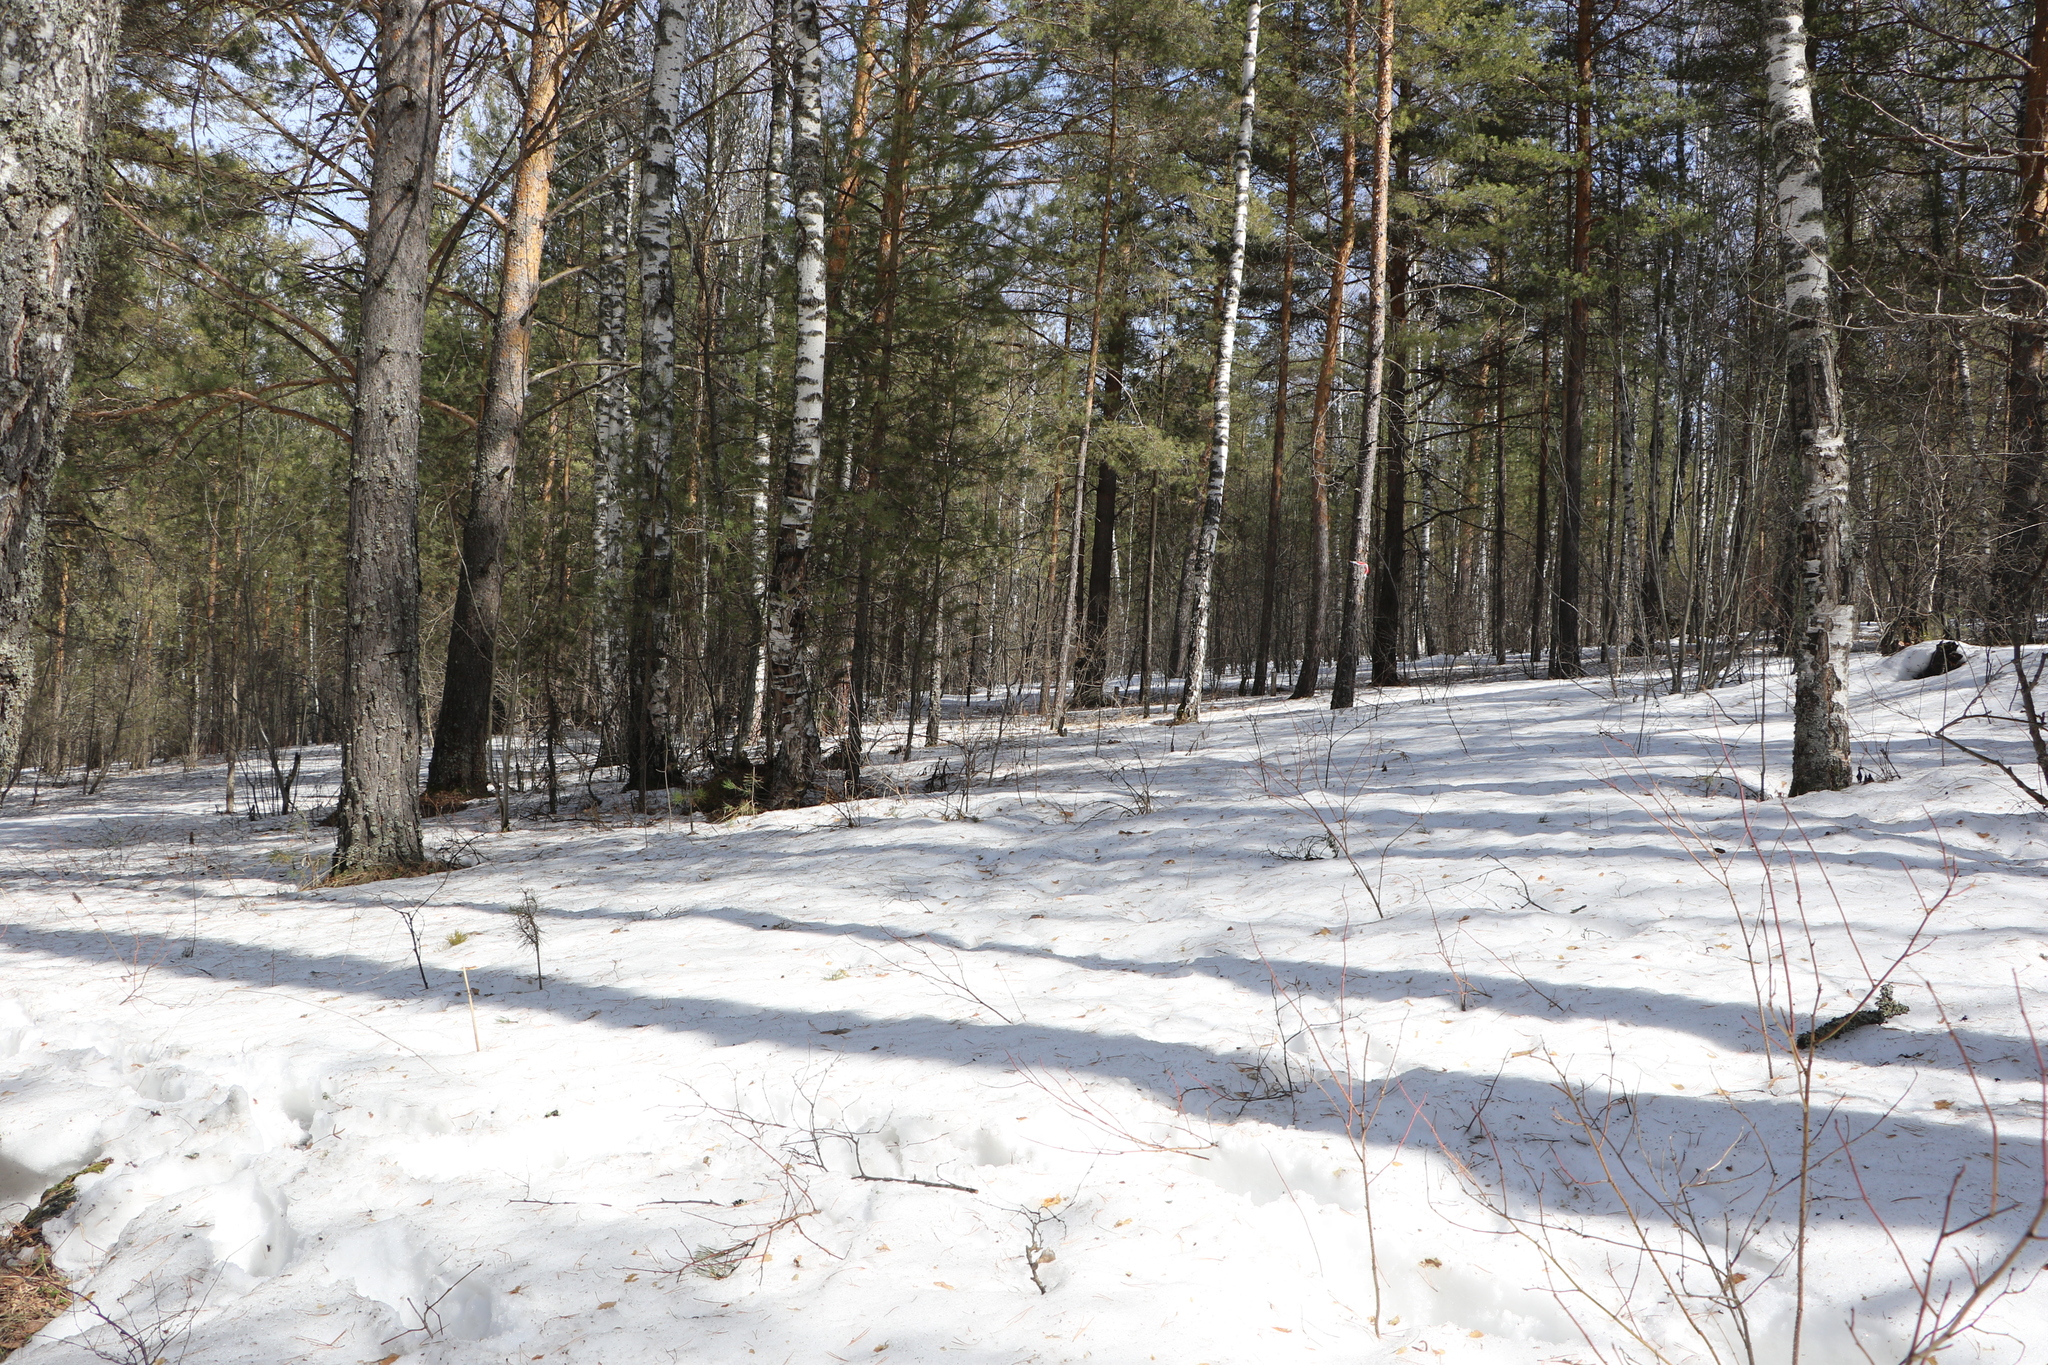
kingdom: Plantae
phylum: Tracheophyta
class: Pinopsida
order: Pinales
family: Pinaceae
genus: Pinus
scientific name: Pinus sylvestris
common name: Scots pine
